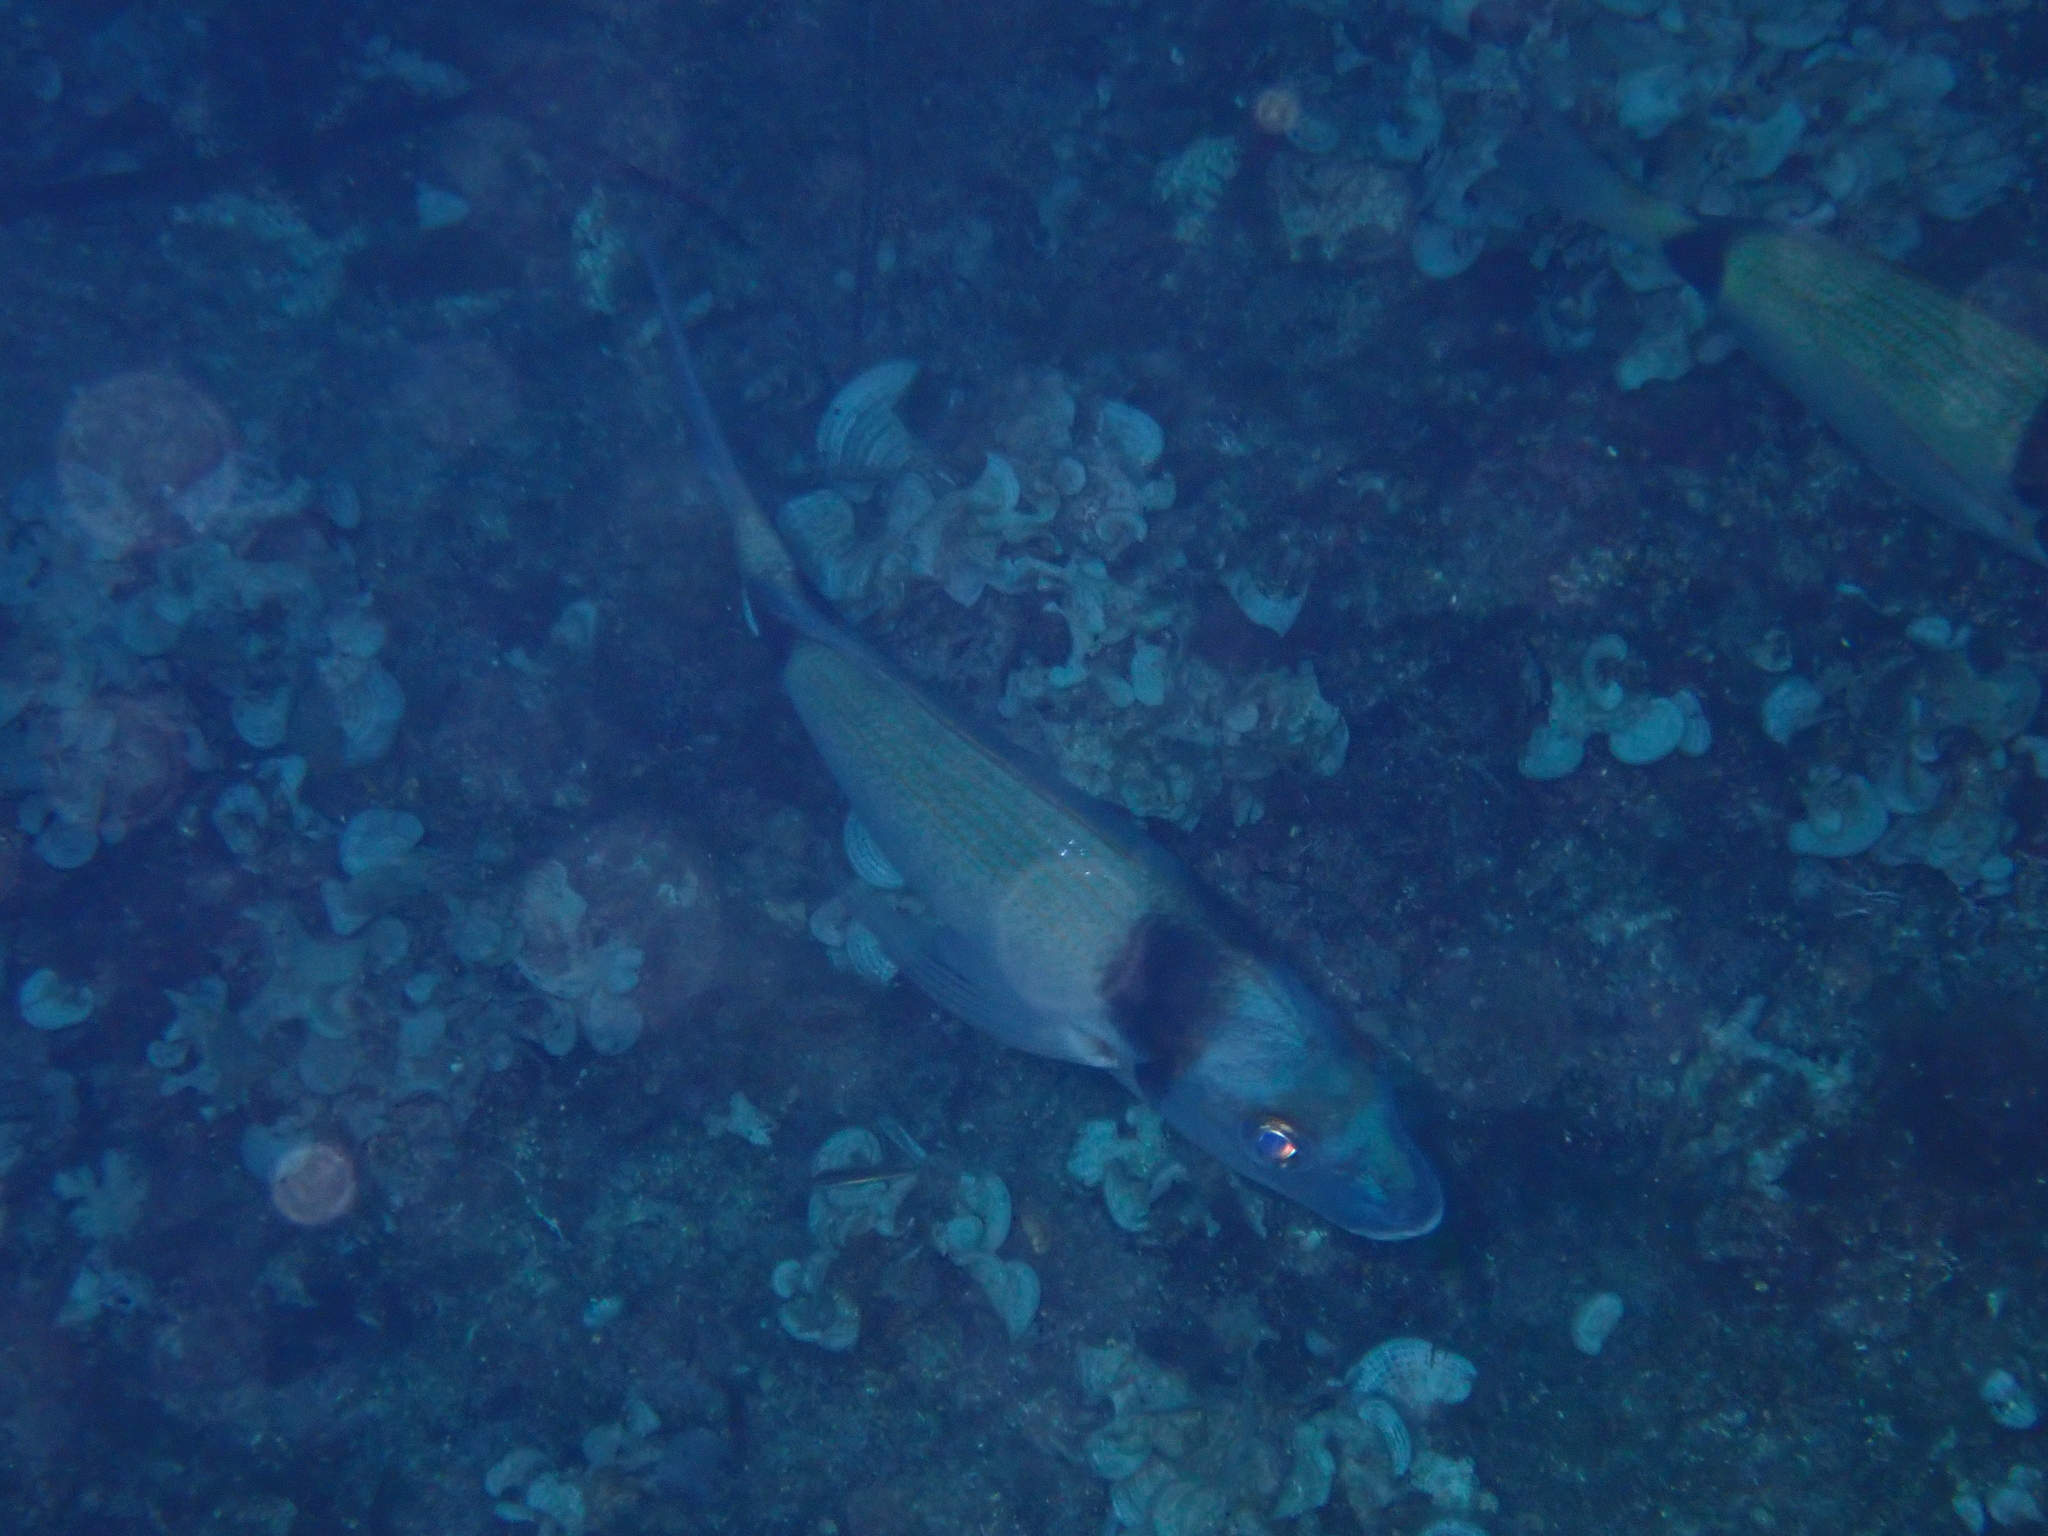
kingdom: Animalia
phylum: Chordata
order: Perciformes
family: Sparidae
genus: Diplodus
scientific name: Diplodus vulgaris
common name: Common two-banded seabream
